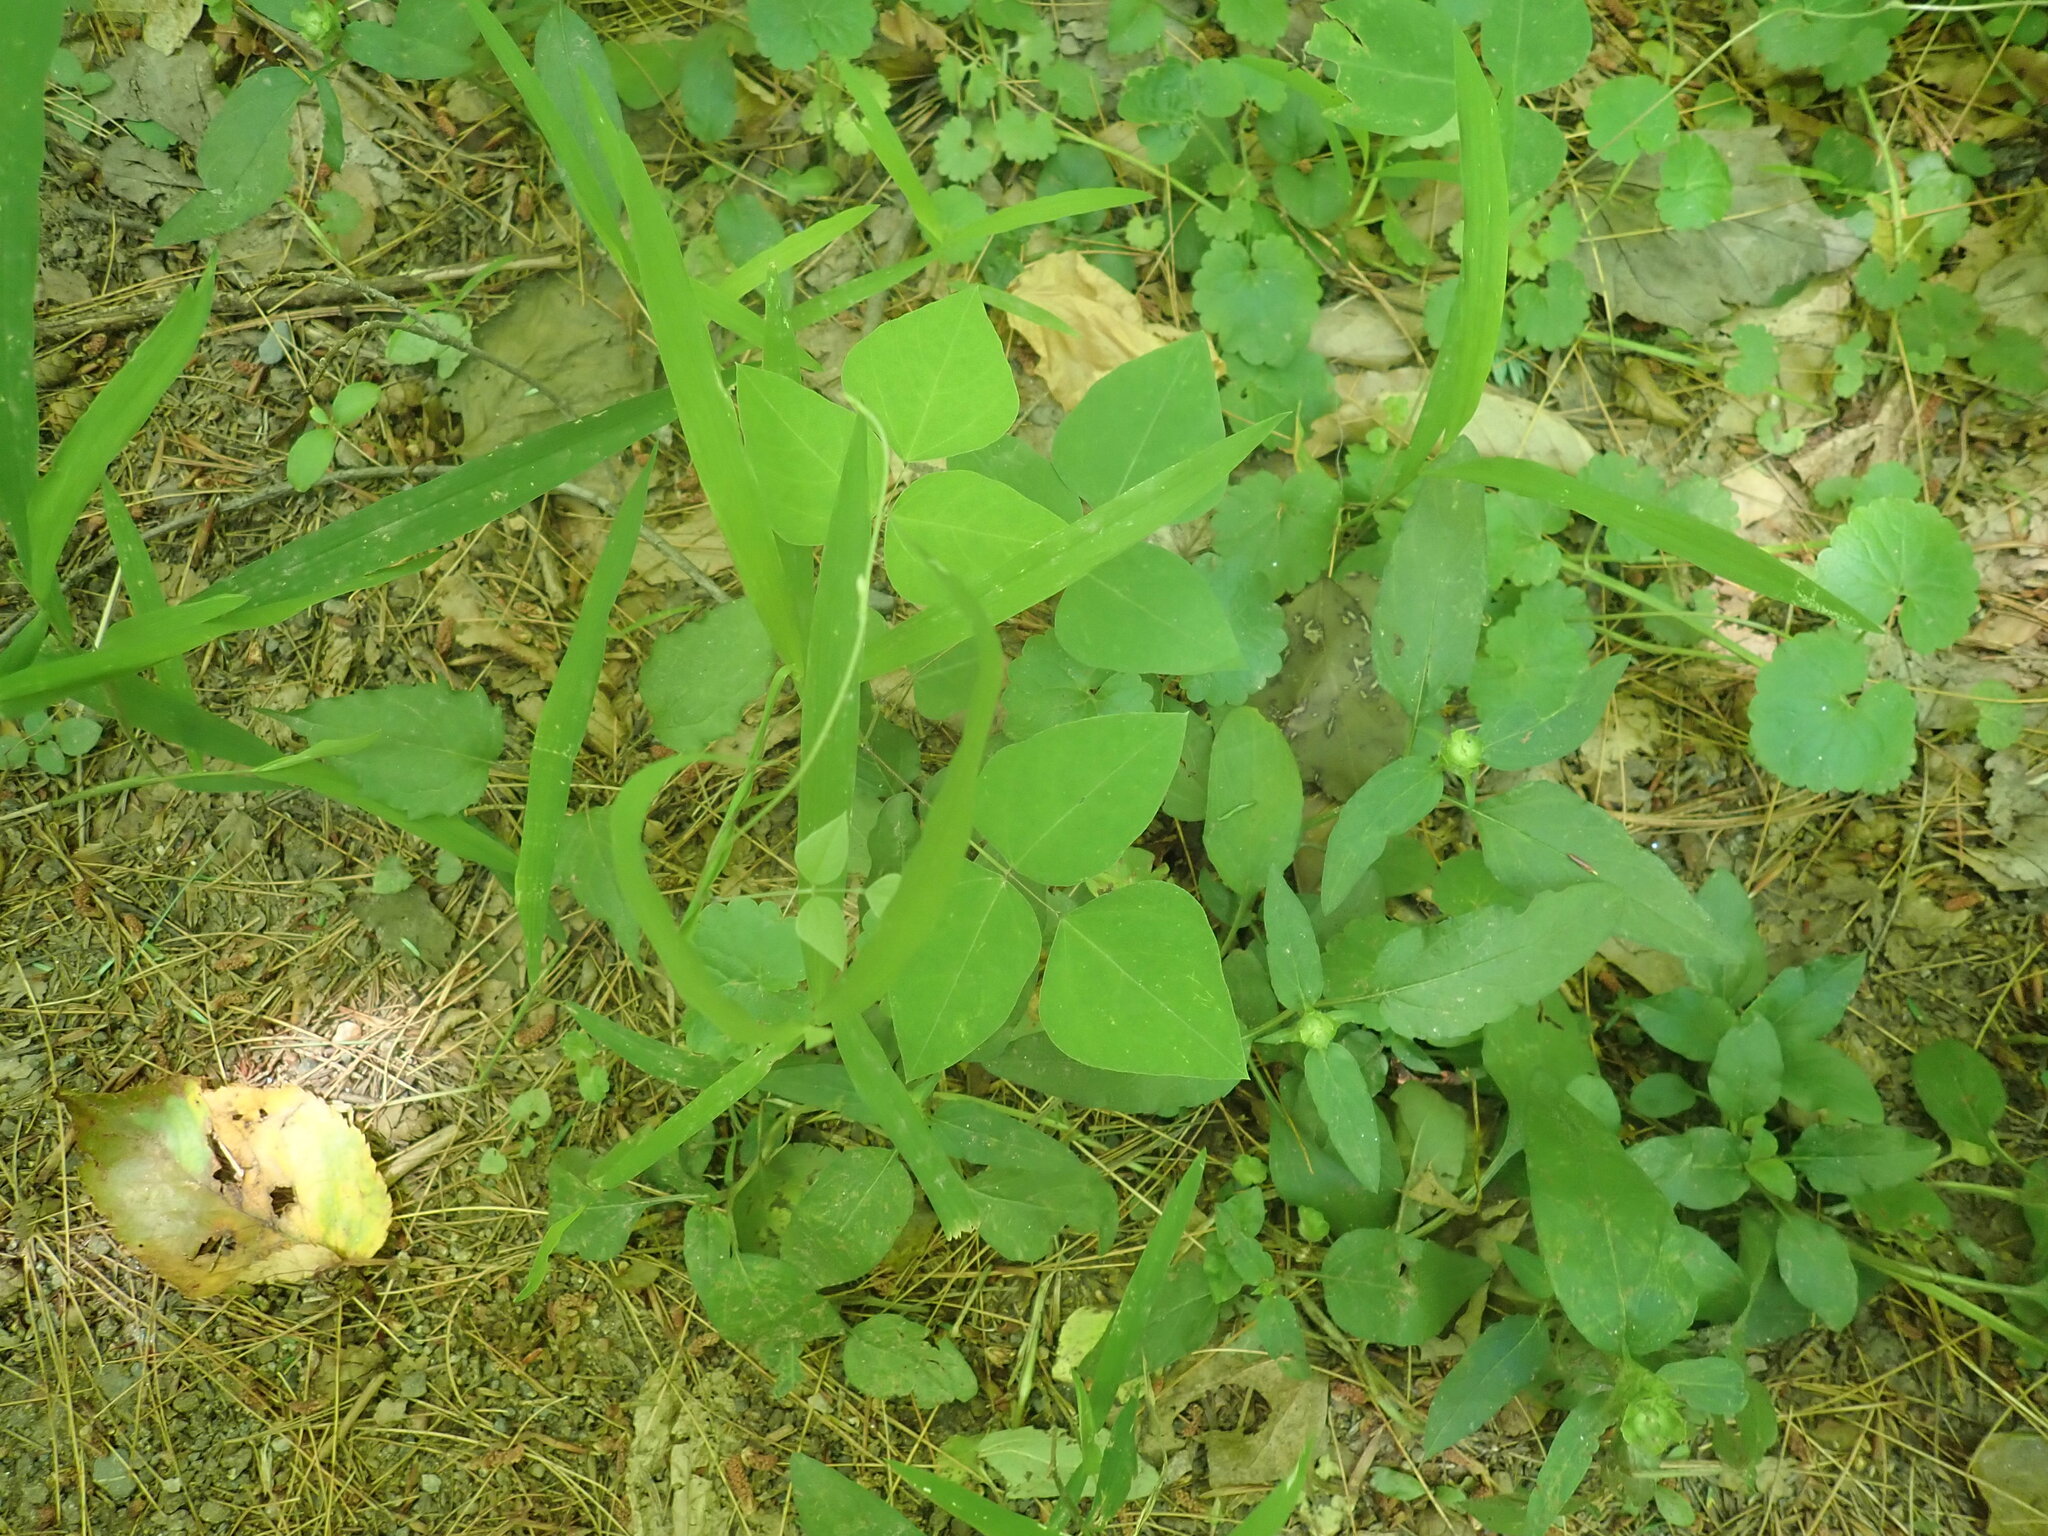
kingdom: Plantae
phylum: Tracheophyta
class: Magnoliopsida
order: Fabales
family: Fabaceae
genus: Amphicarpaea
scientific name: Amphicarpaea bracteata
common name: American hog peanut
